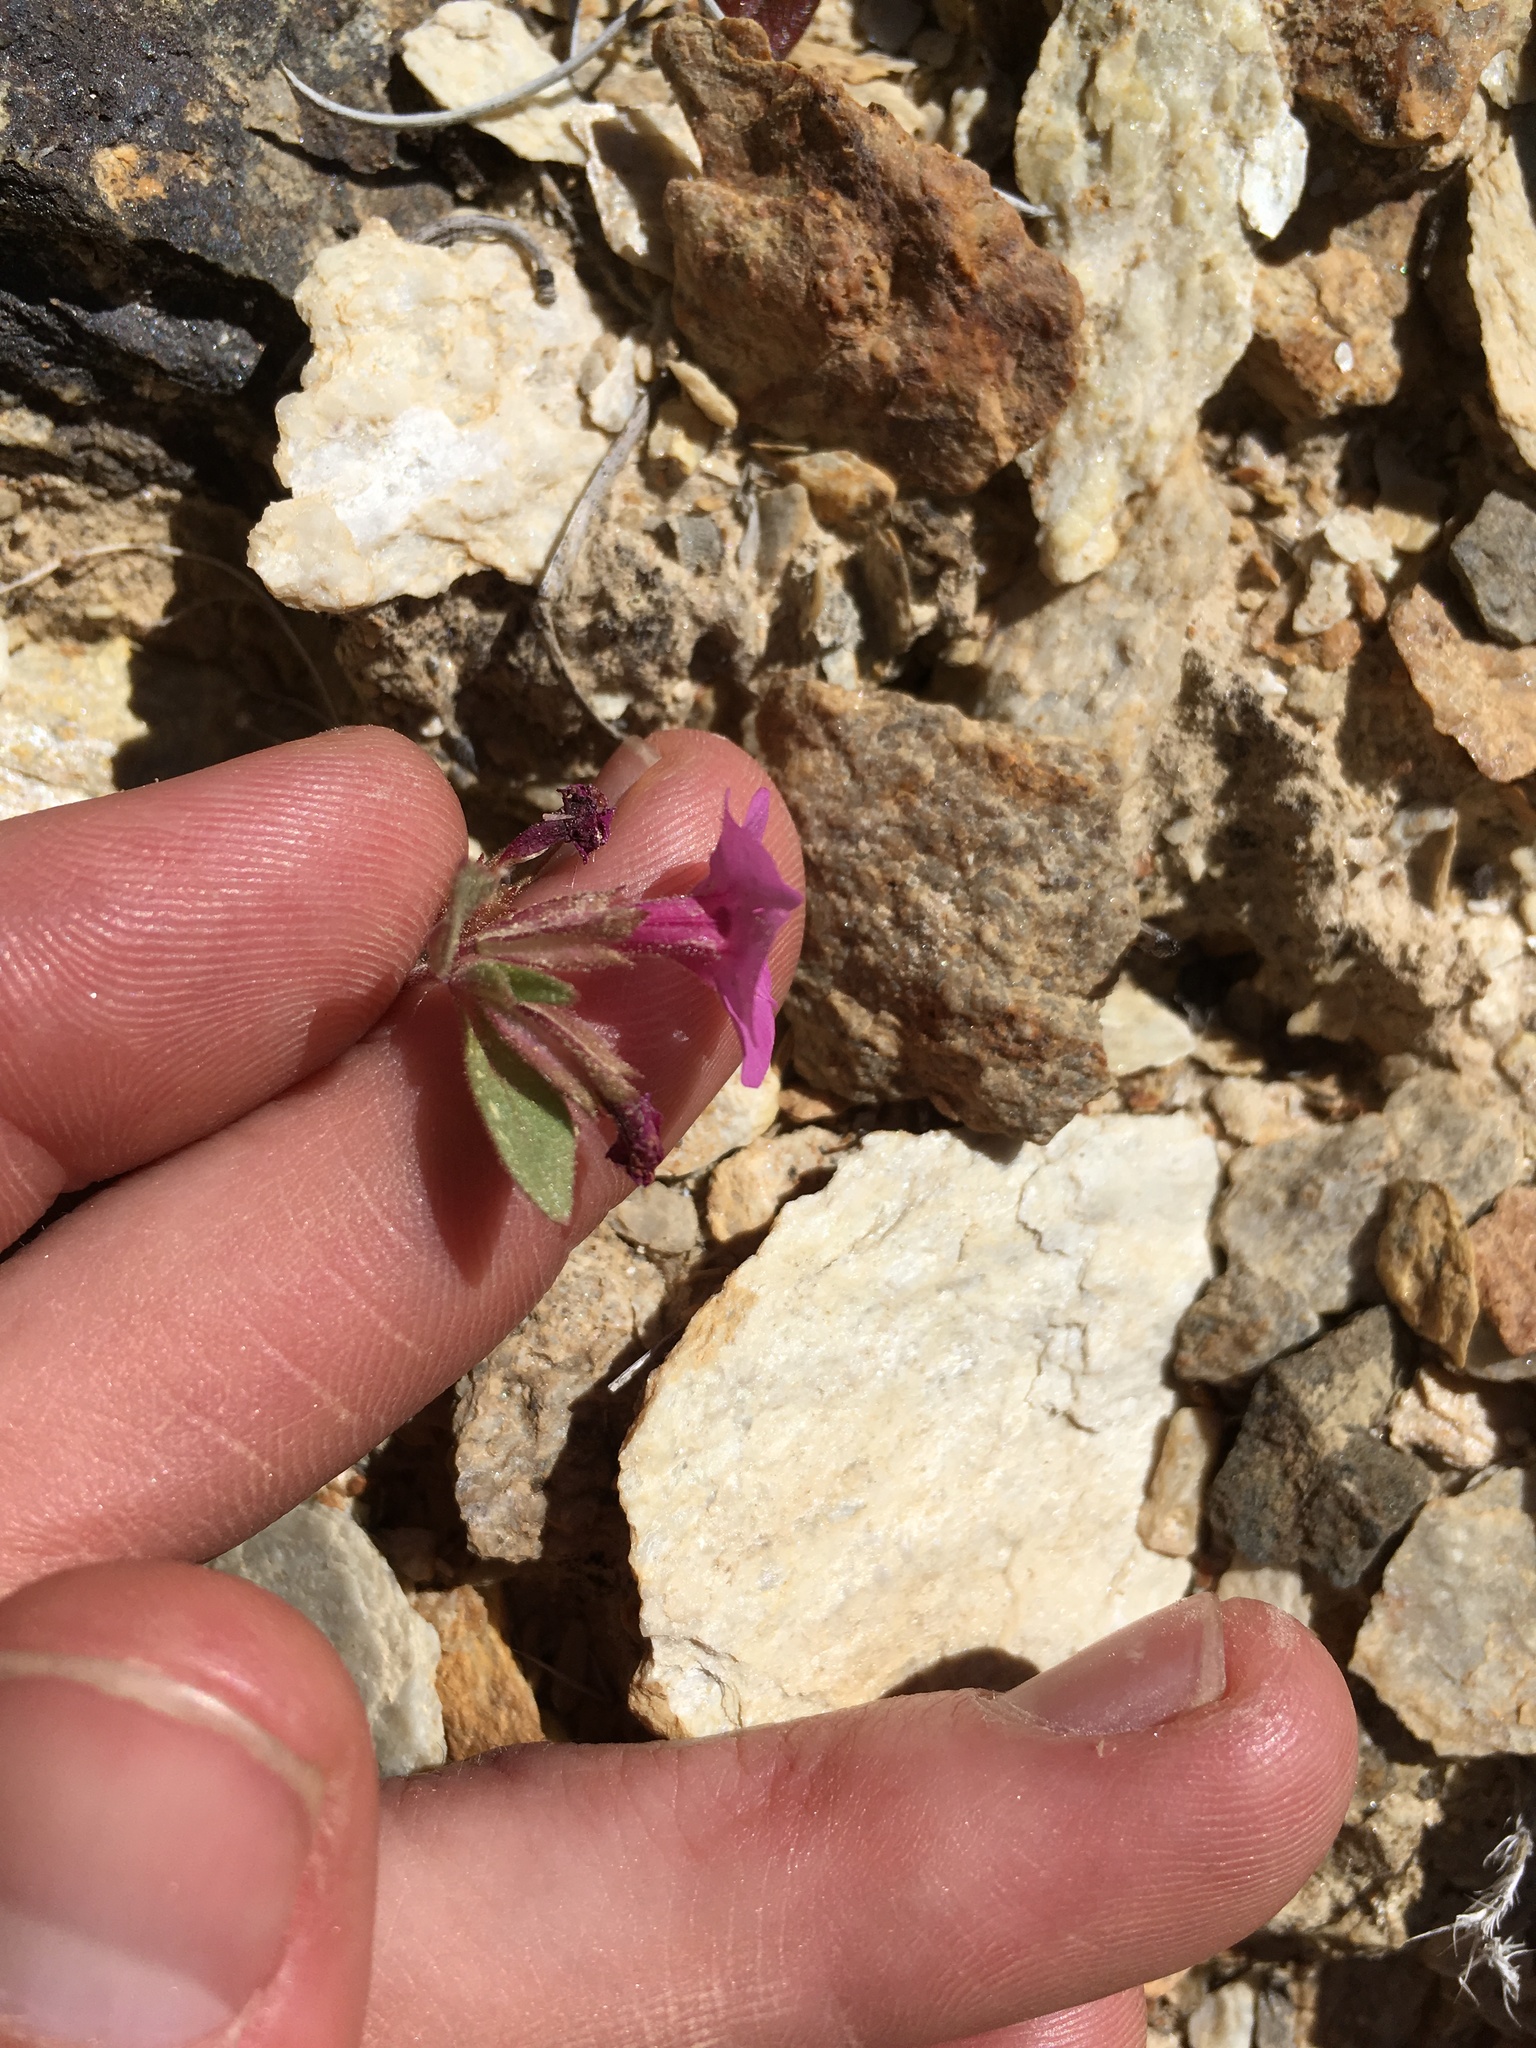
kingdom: Plantae
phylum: Tracheophyta
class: Magnoliopsida
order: Lamiales
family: Phrymaceae
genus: Diplacus
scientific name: Diplacus parryi
